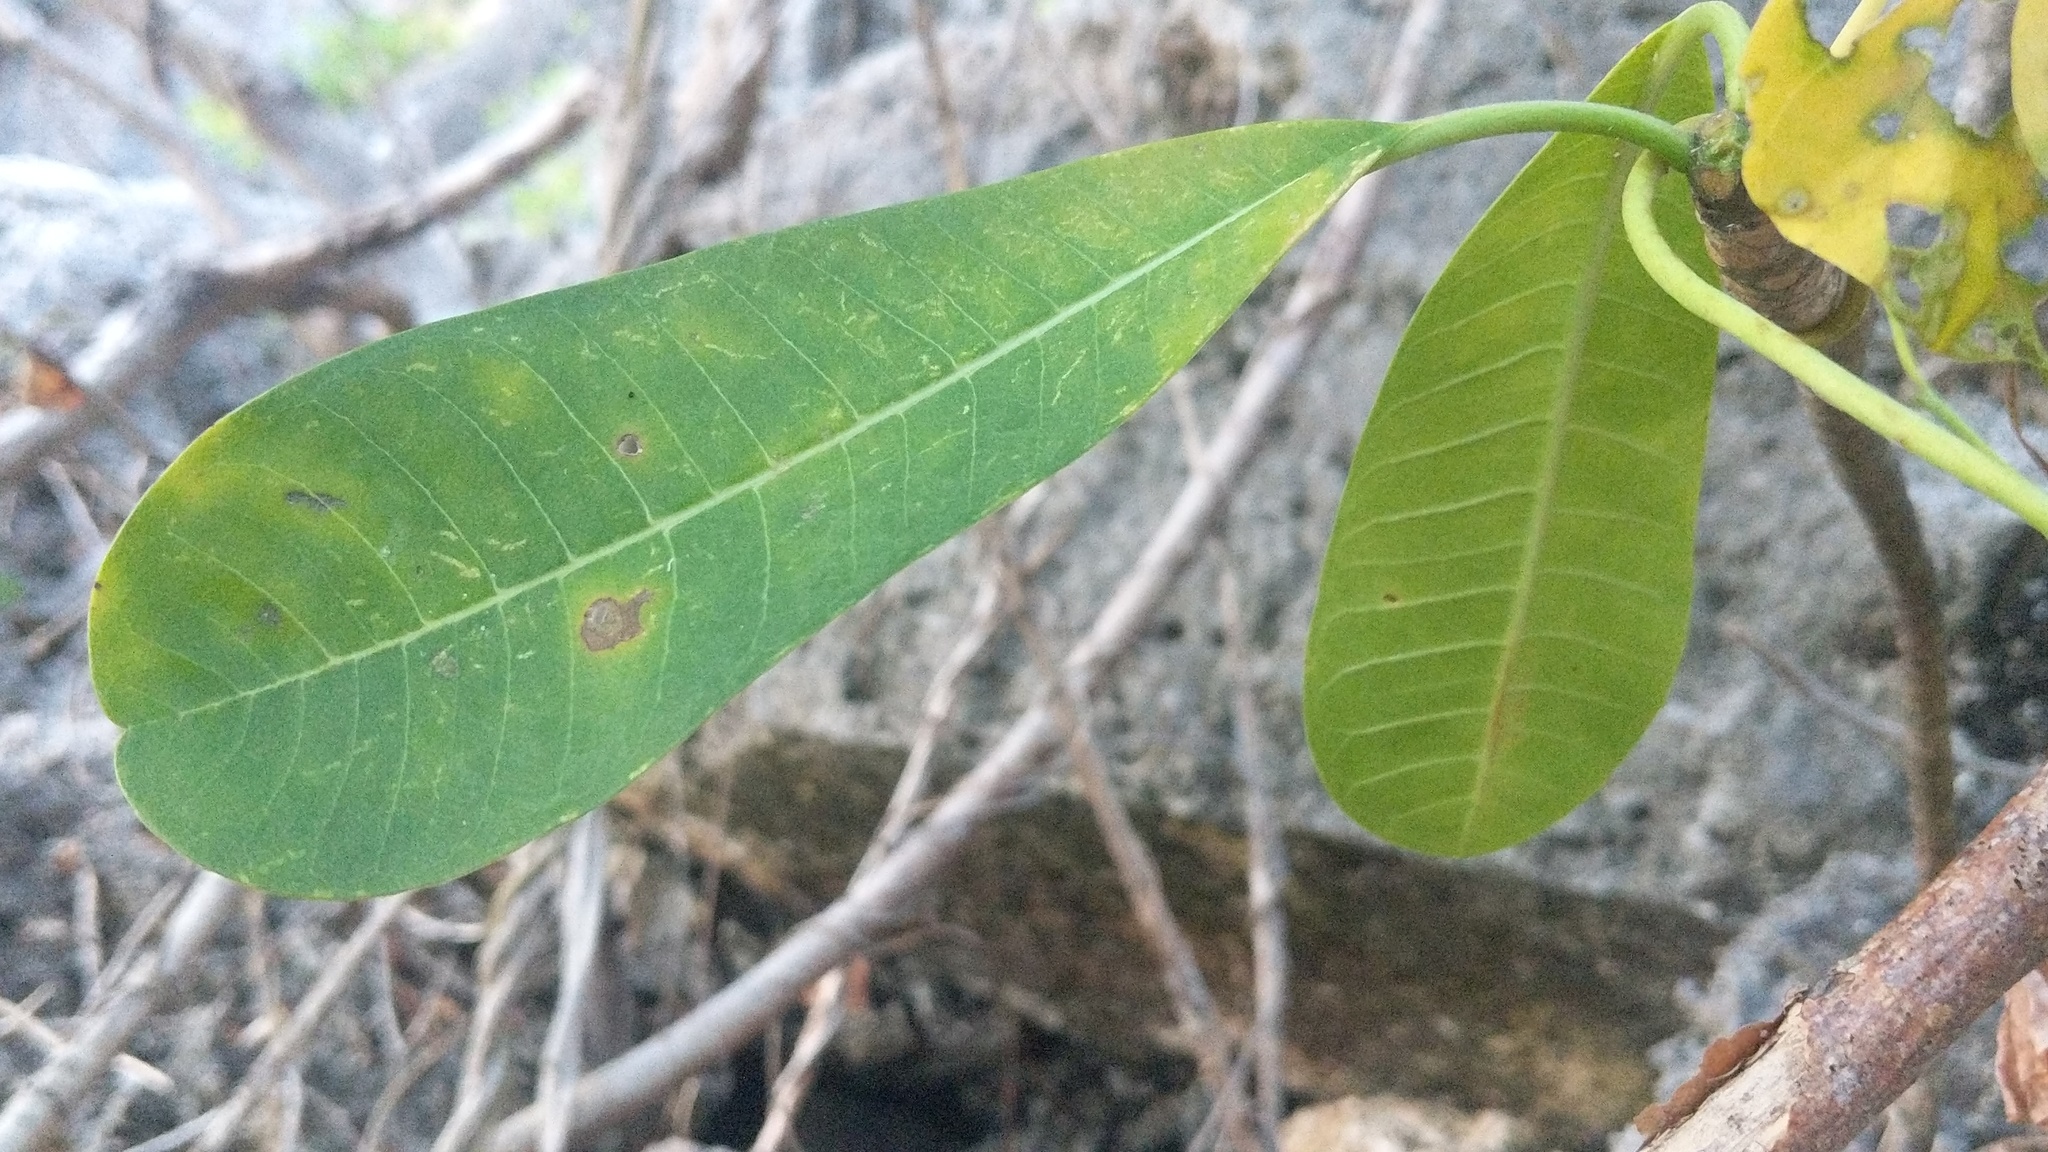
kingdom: Plantae
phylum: Tracheophyta
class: Magnoliopsida
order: Gentianales
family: Apocynaceae
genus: Plumeria
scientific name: Plumeria obtusa
